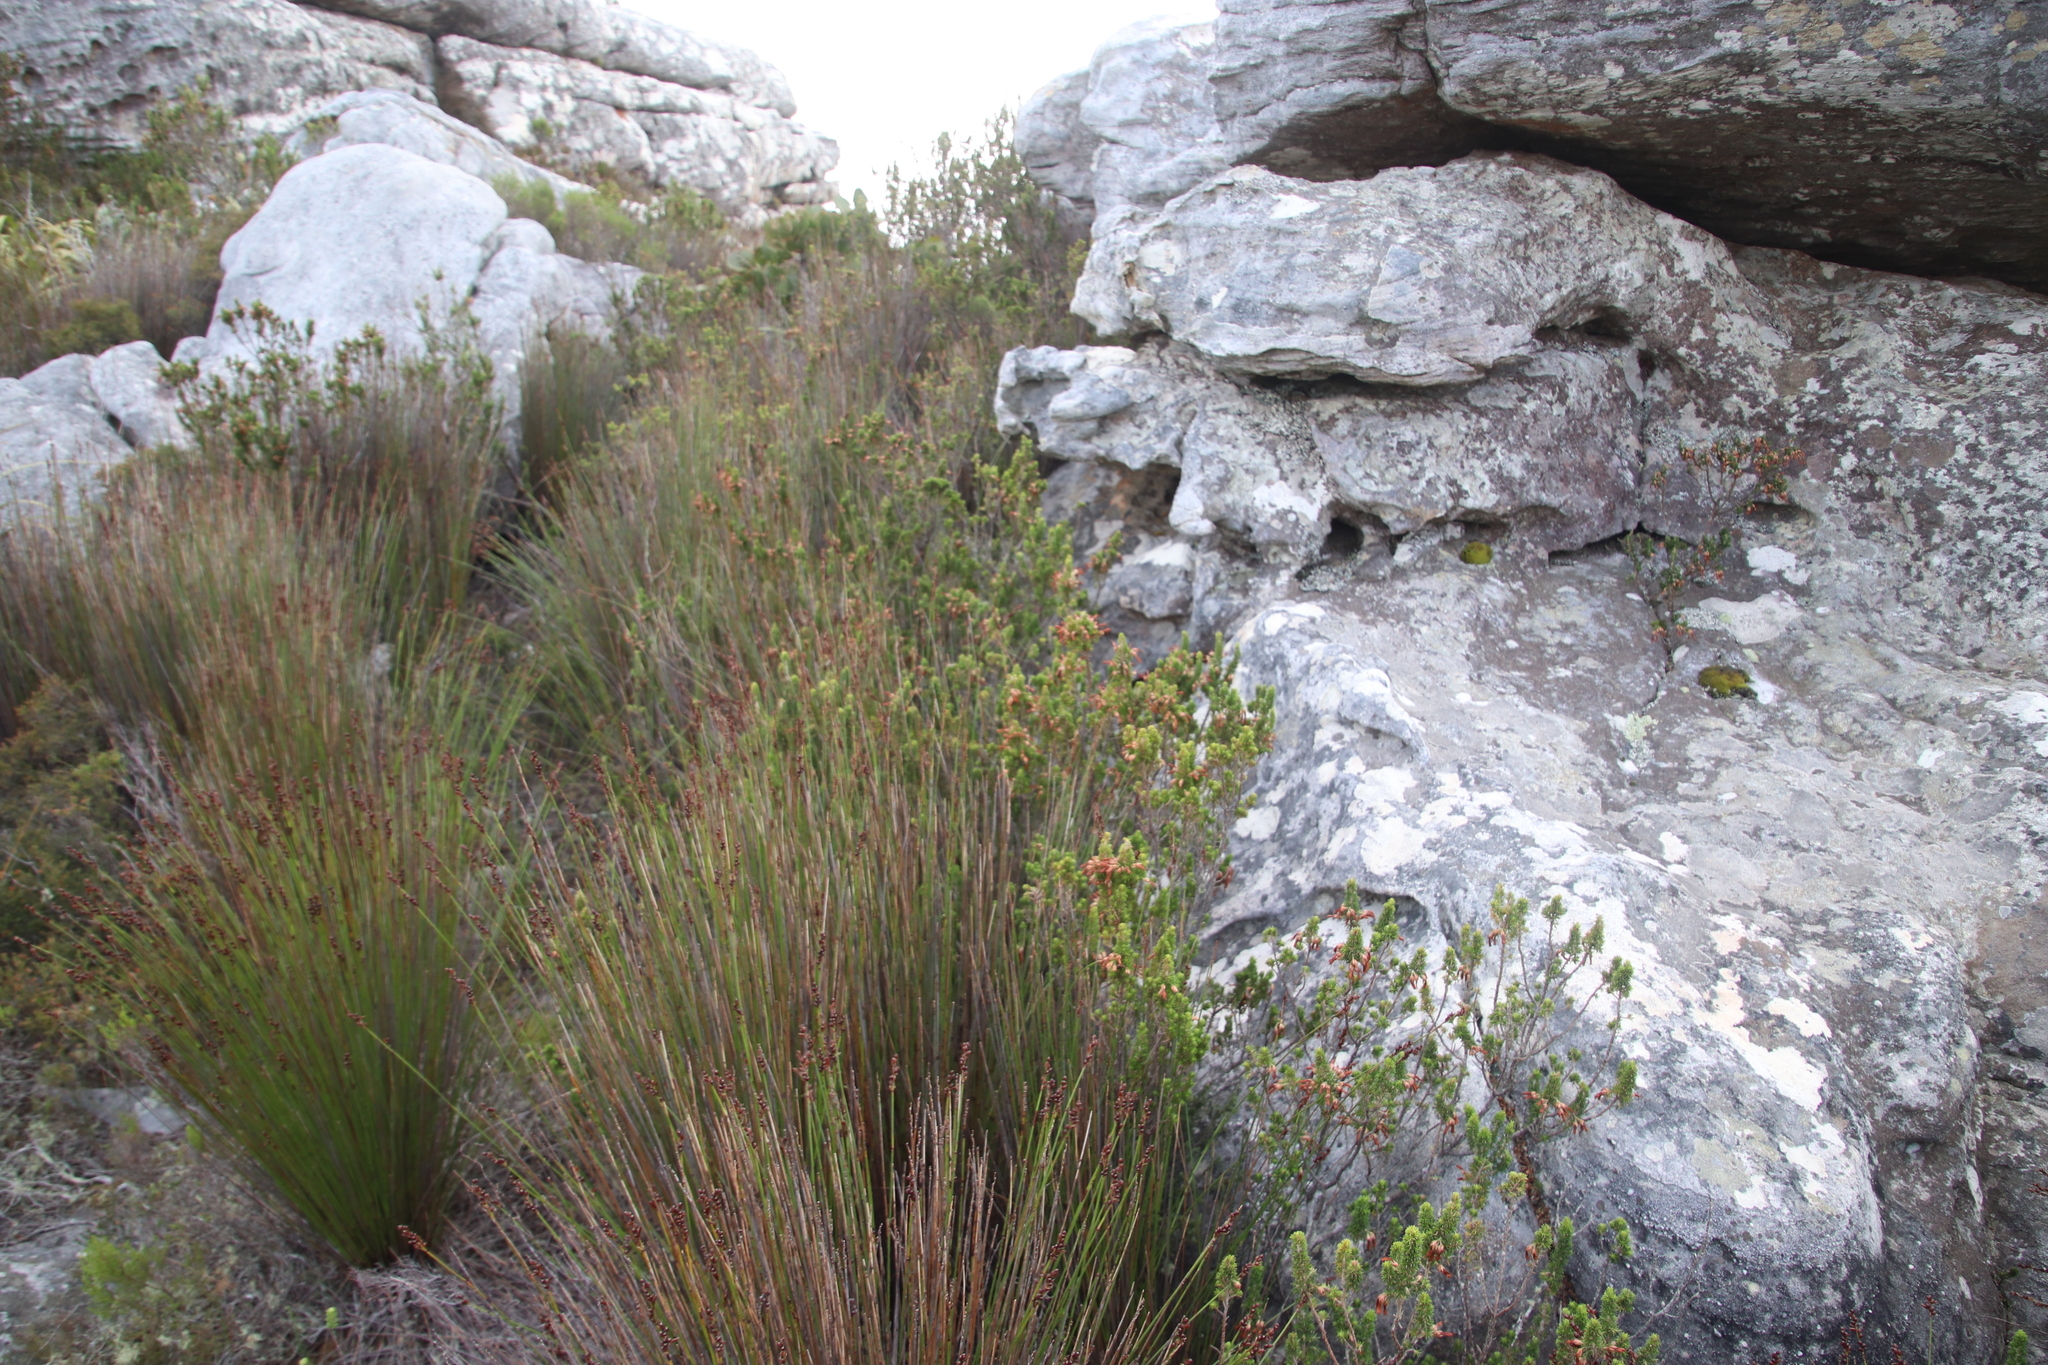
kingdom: Plantae
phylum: Tracheophyta
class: Magnoliopsida
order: Ericales
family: Ericaceae
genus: Erica
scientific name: Erica coccinea
